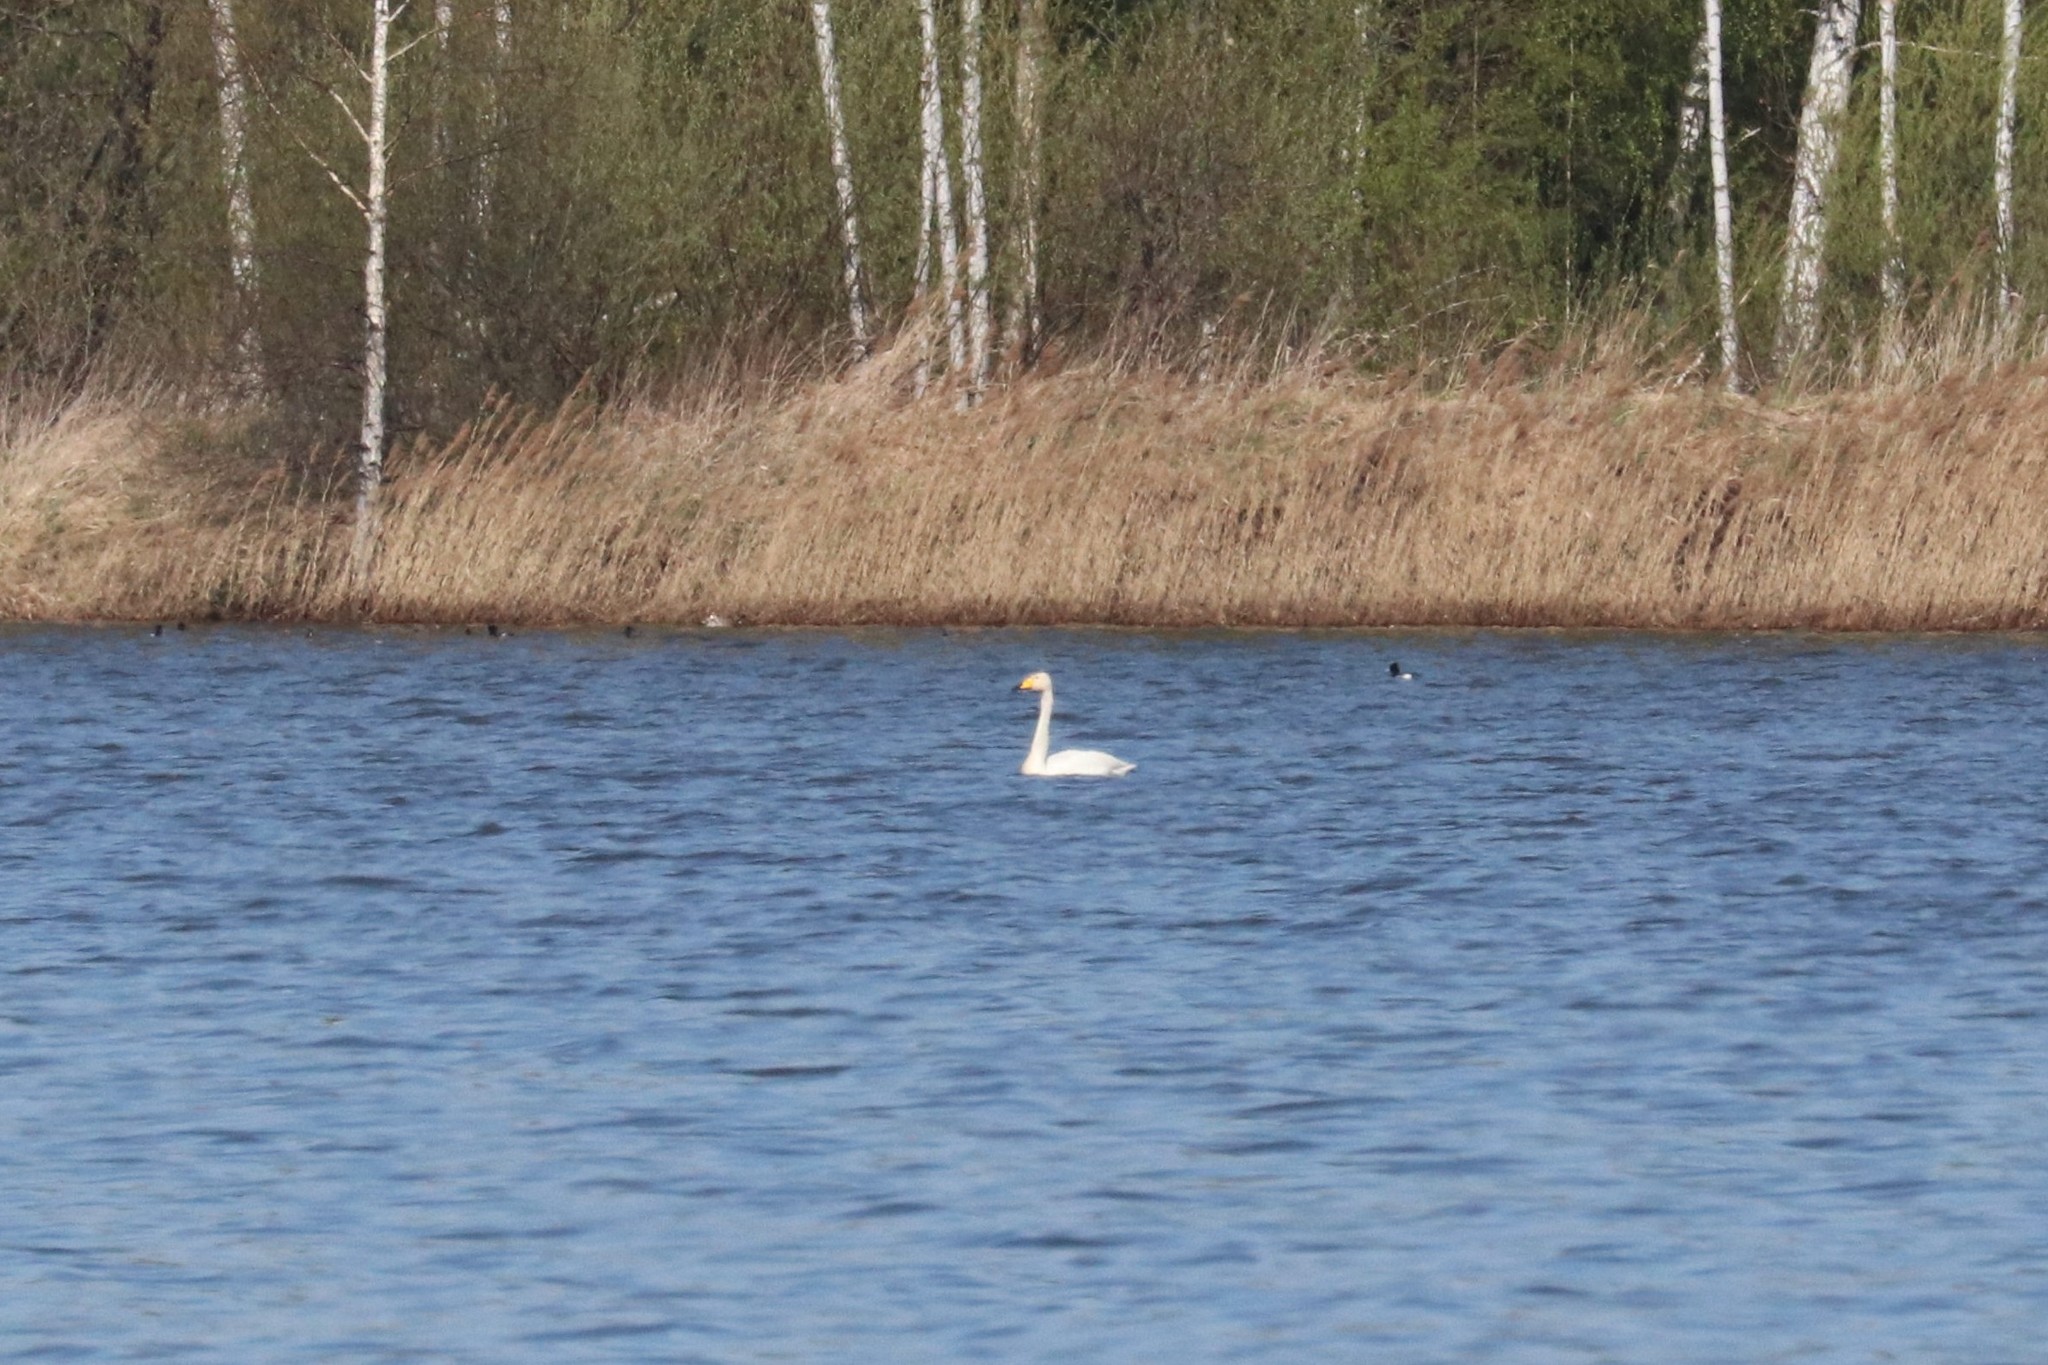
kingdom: Animalia
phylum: Chordata
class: Aves
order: Anseriformes
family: Anatidae
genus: Cygnus
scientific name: Cygnus cygnus
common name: Whooper swan
